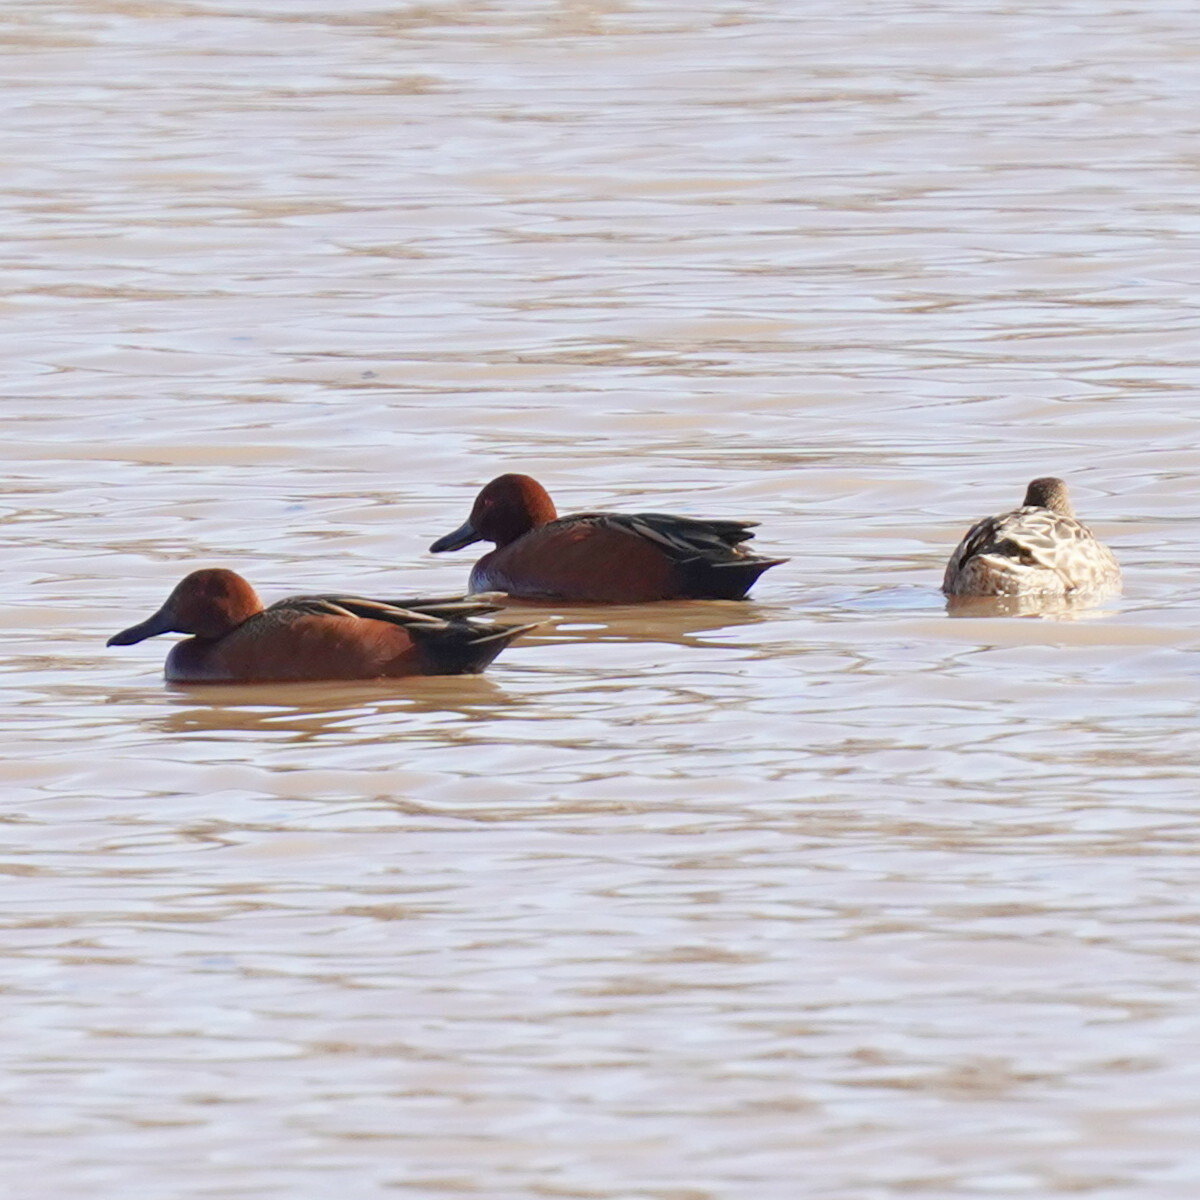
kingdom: Animalia
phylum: Chordata
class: Aves
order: Anseriformes
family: Anatidae
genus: Spatula
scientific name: Spatula cyanoptera
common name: Cinnamon teal
